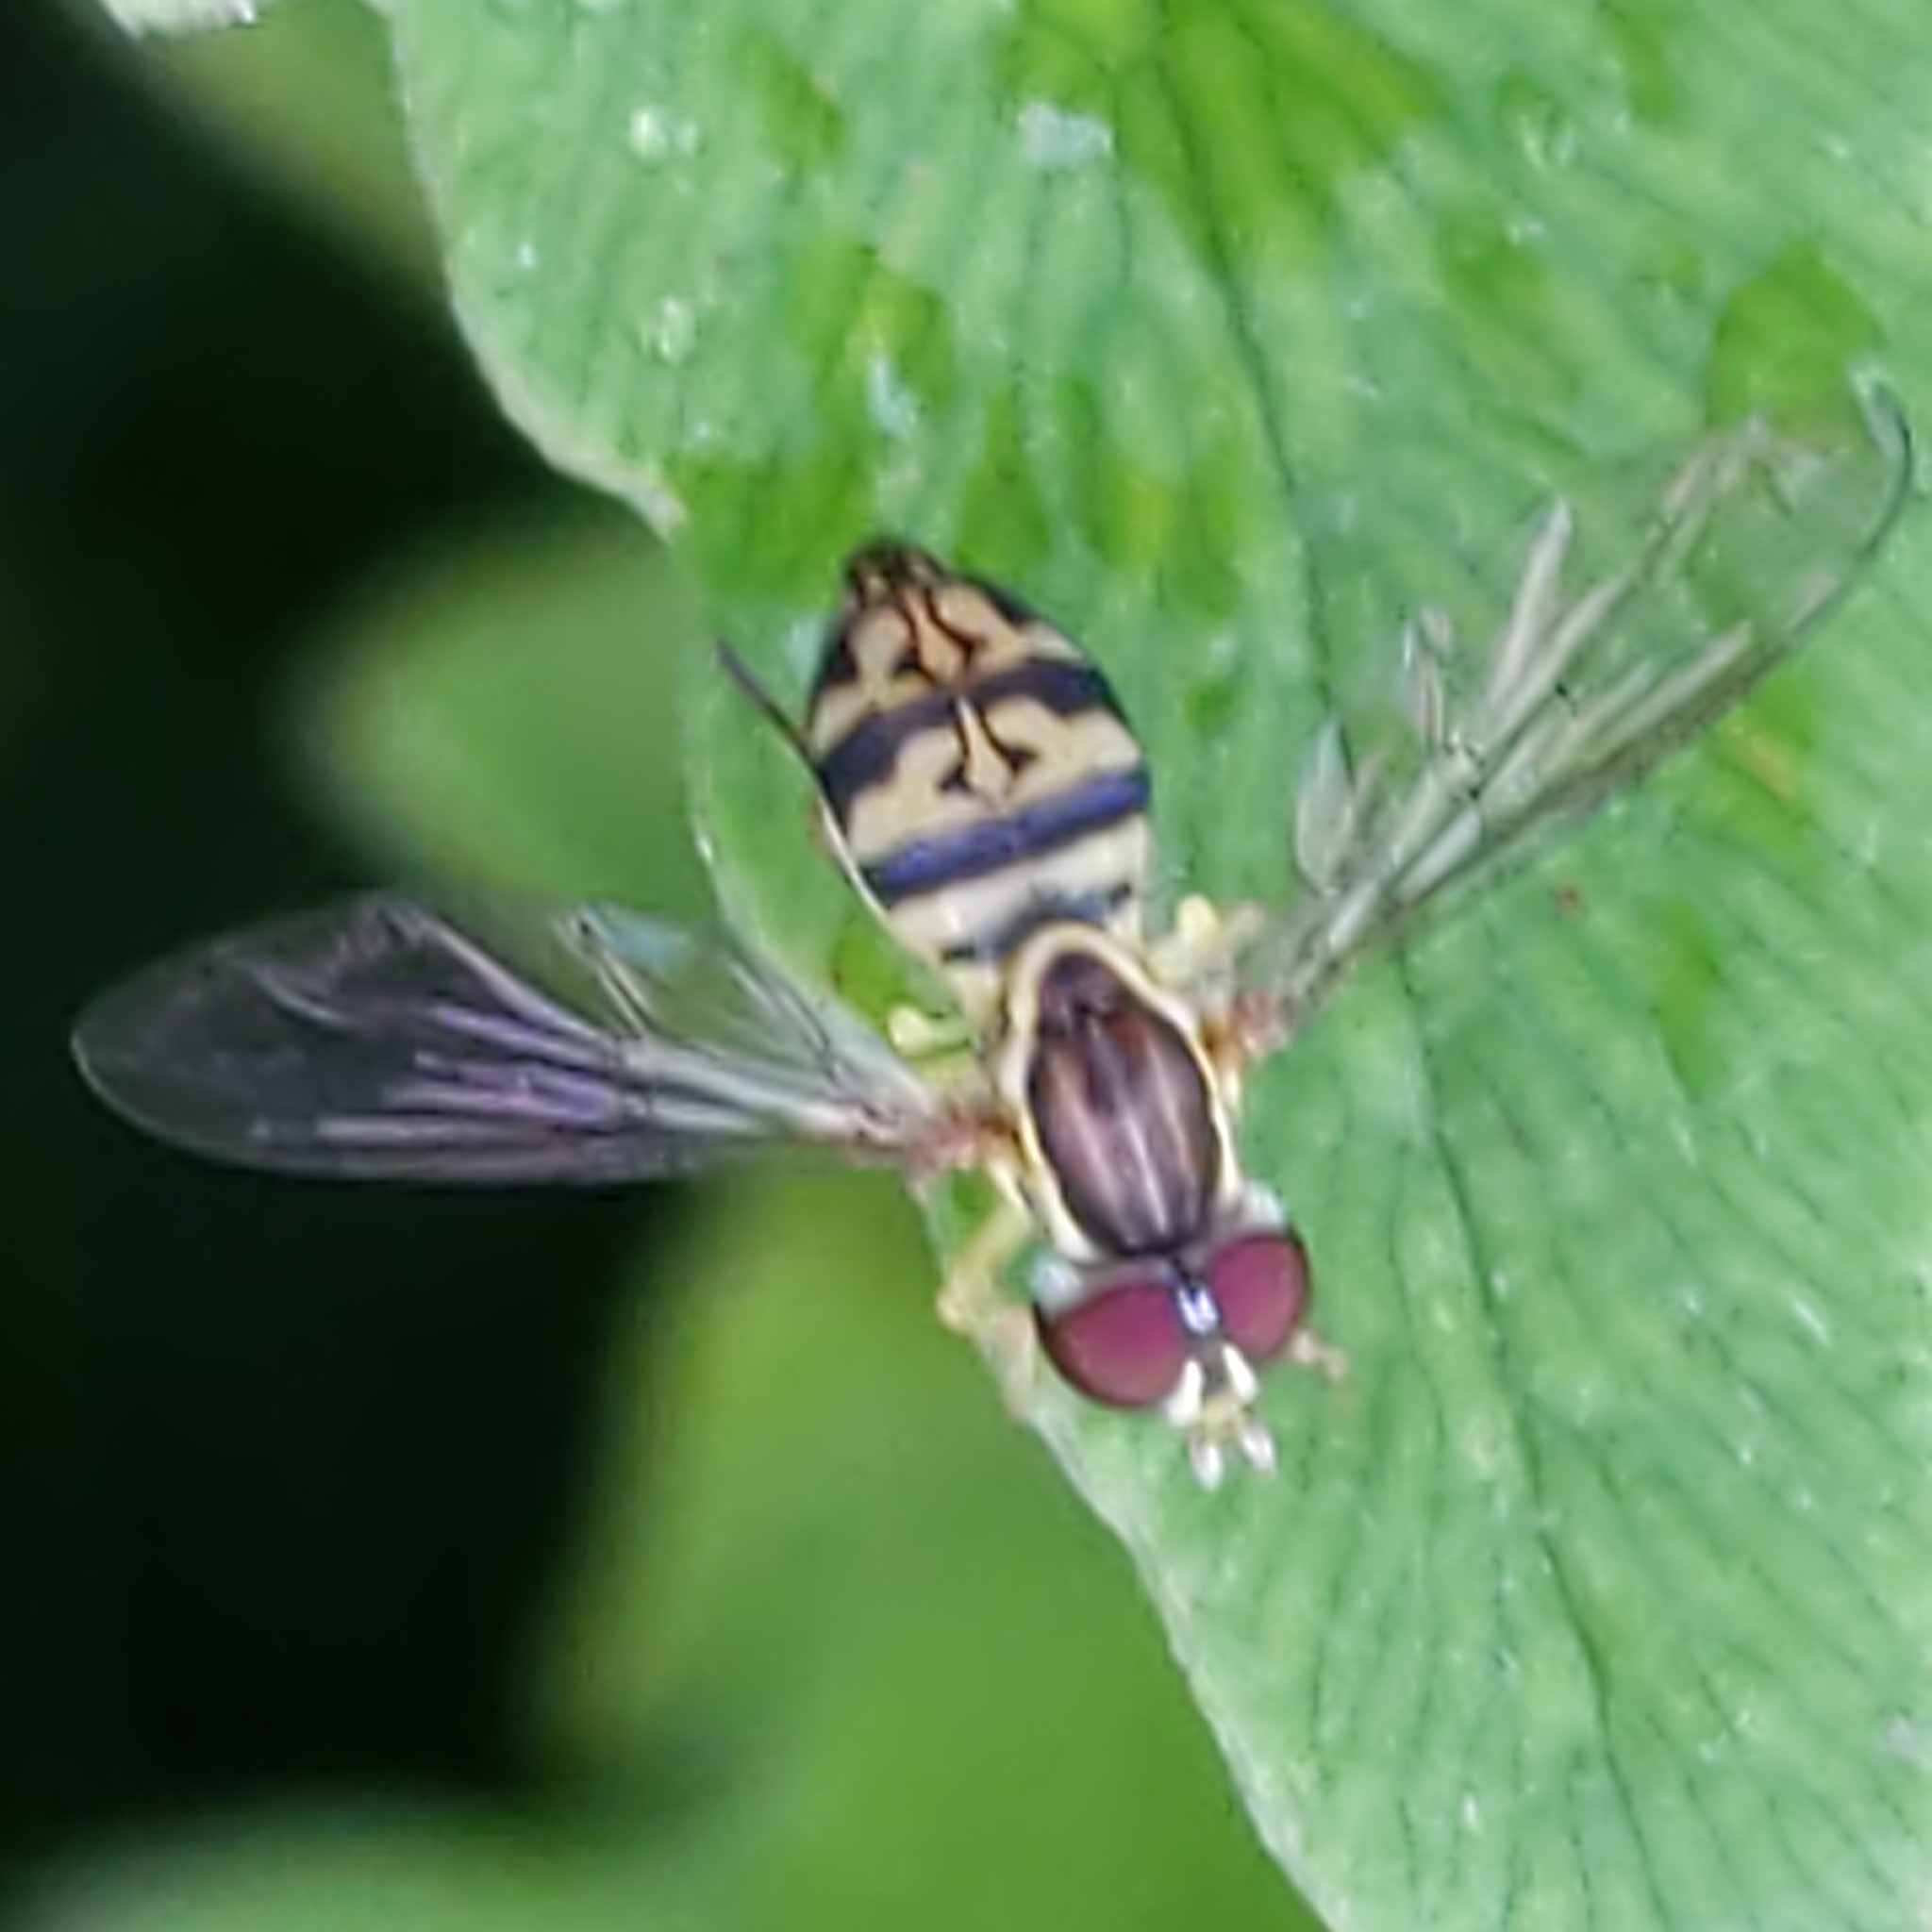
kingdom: Animalia
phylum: Arthropoda
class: Insecta
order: Diptera
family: Syrphidae
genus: Toxomerus
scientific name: Toxomerus geminatus
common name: Eastern calligrapher
